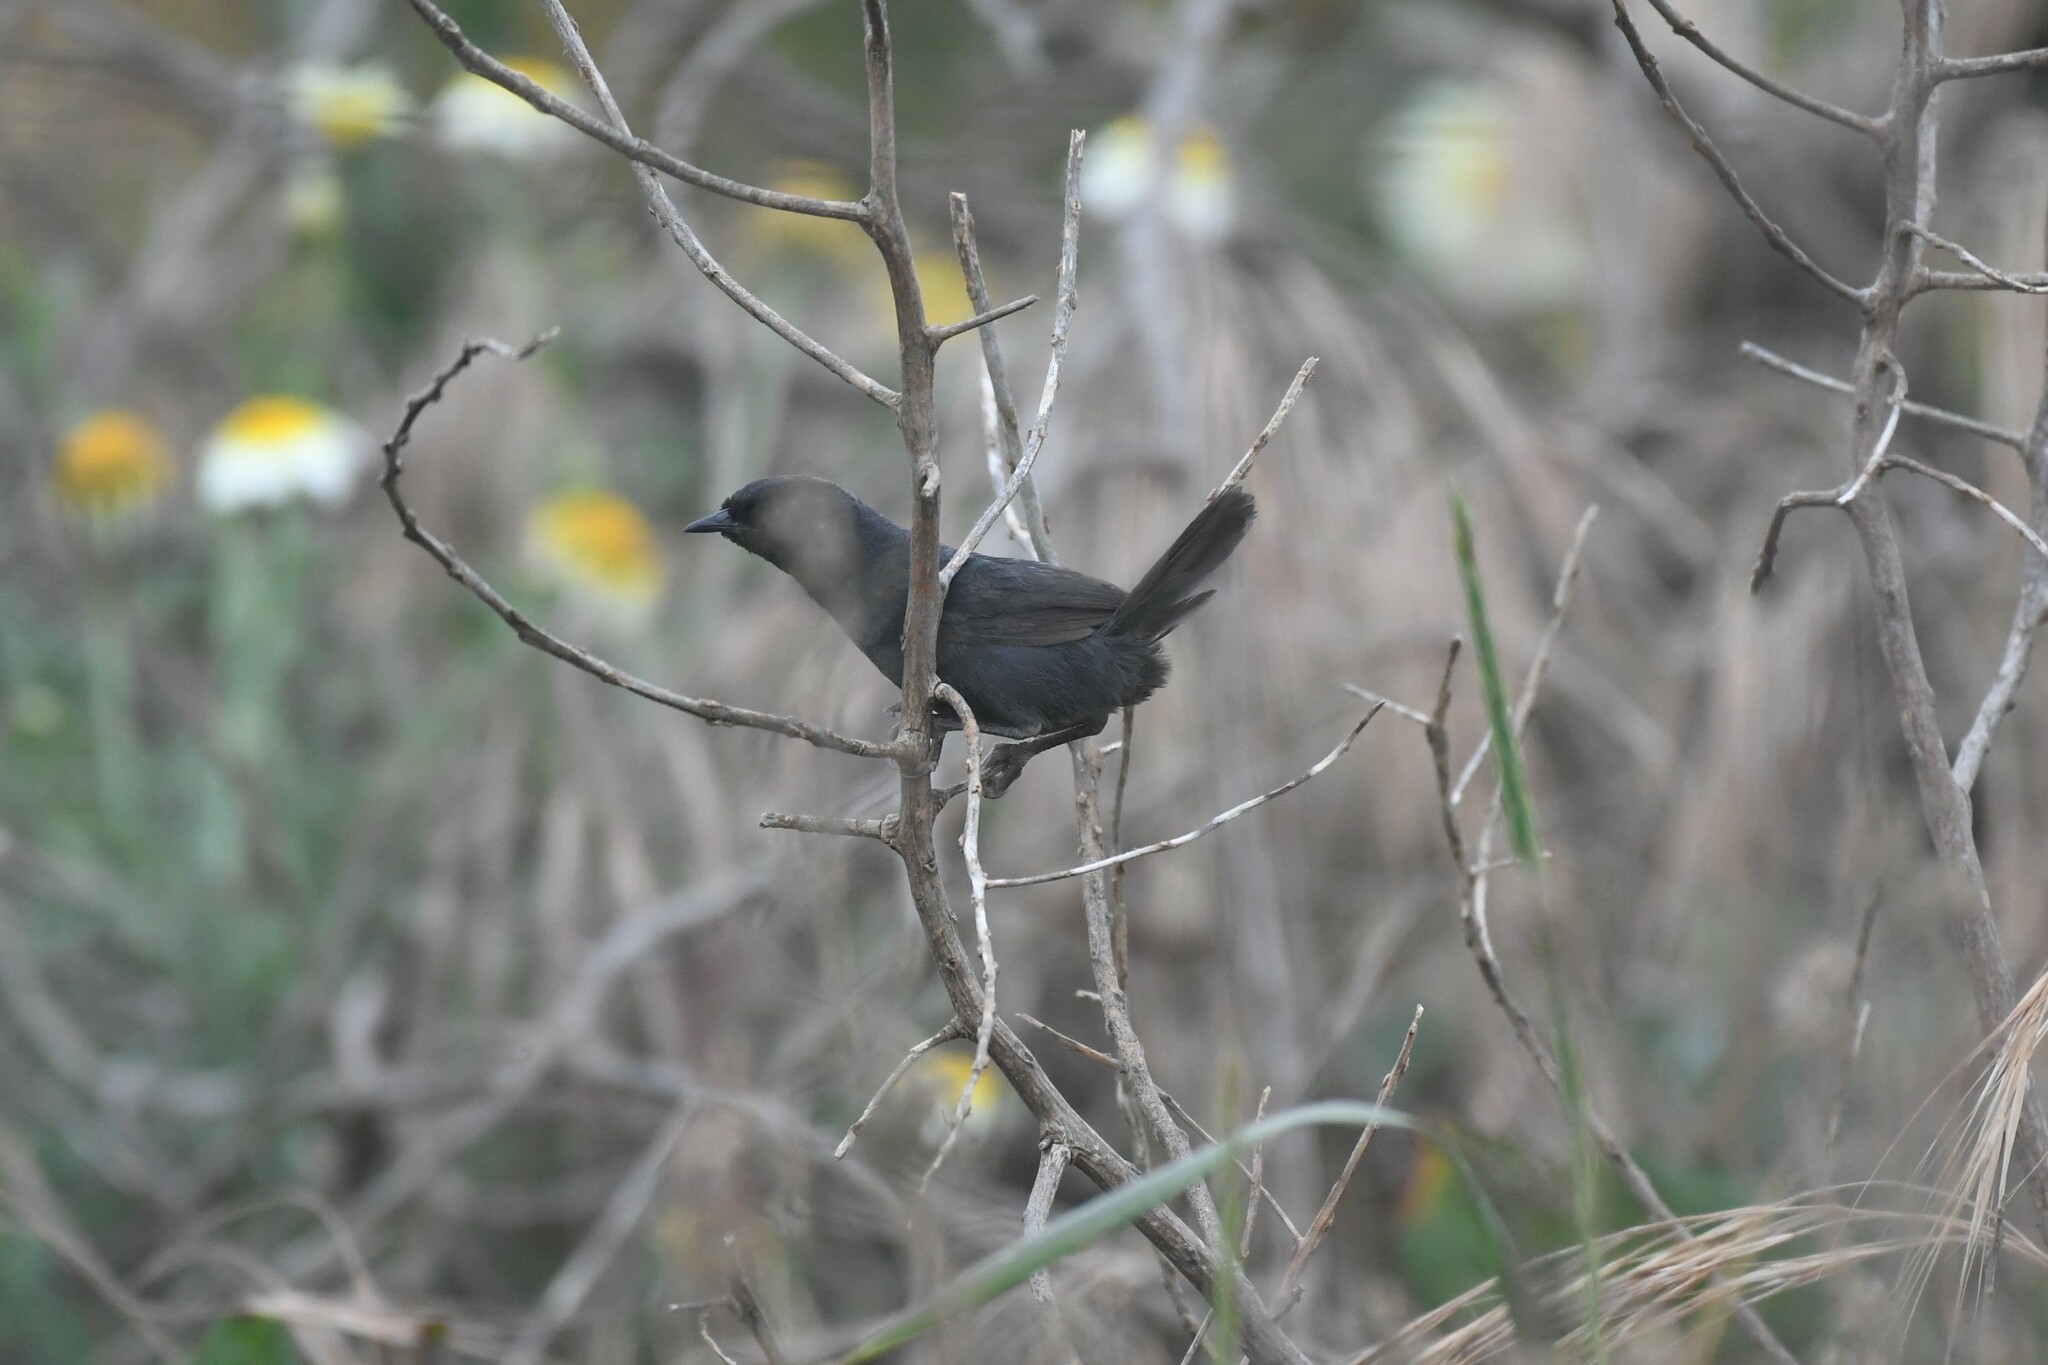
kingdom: Animalia
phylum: Chordata
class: Aves
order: Passeriformes
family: Rhinocryptidae
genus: Scytalopus
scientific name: Scytalopus fuscus
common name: Dusky tapaculo
